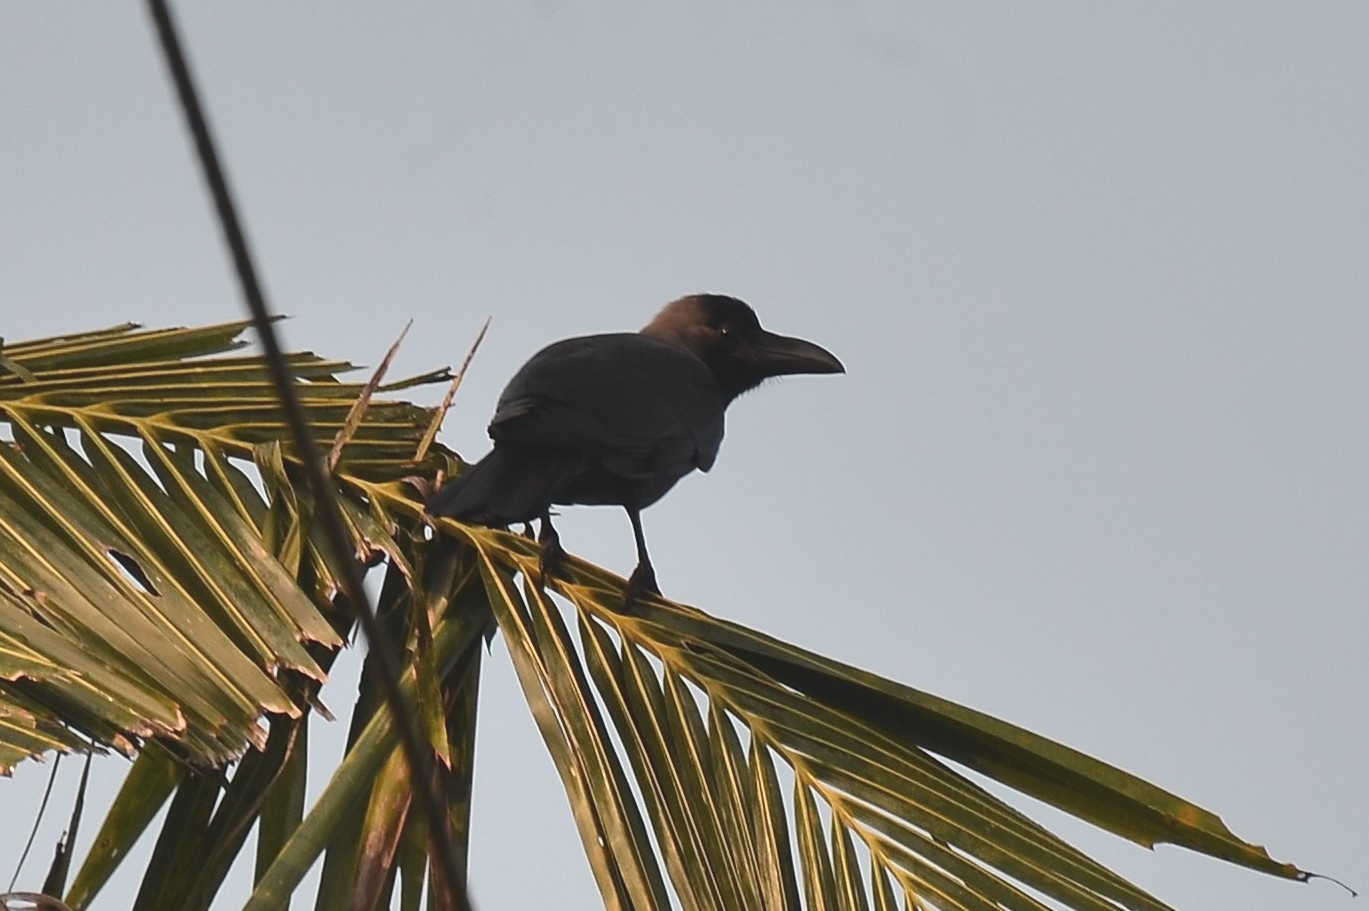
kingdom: Animalia
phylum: Chordata
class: Aves
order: Passeriformes
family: Corvidae
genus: Corvus
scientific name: Corvus splendens
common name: House crow
